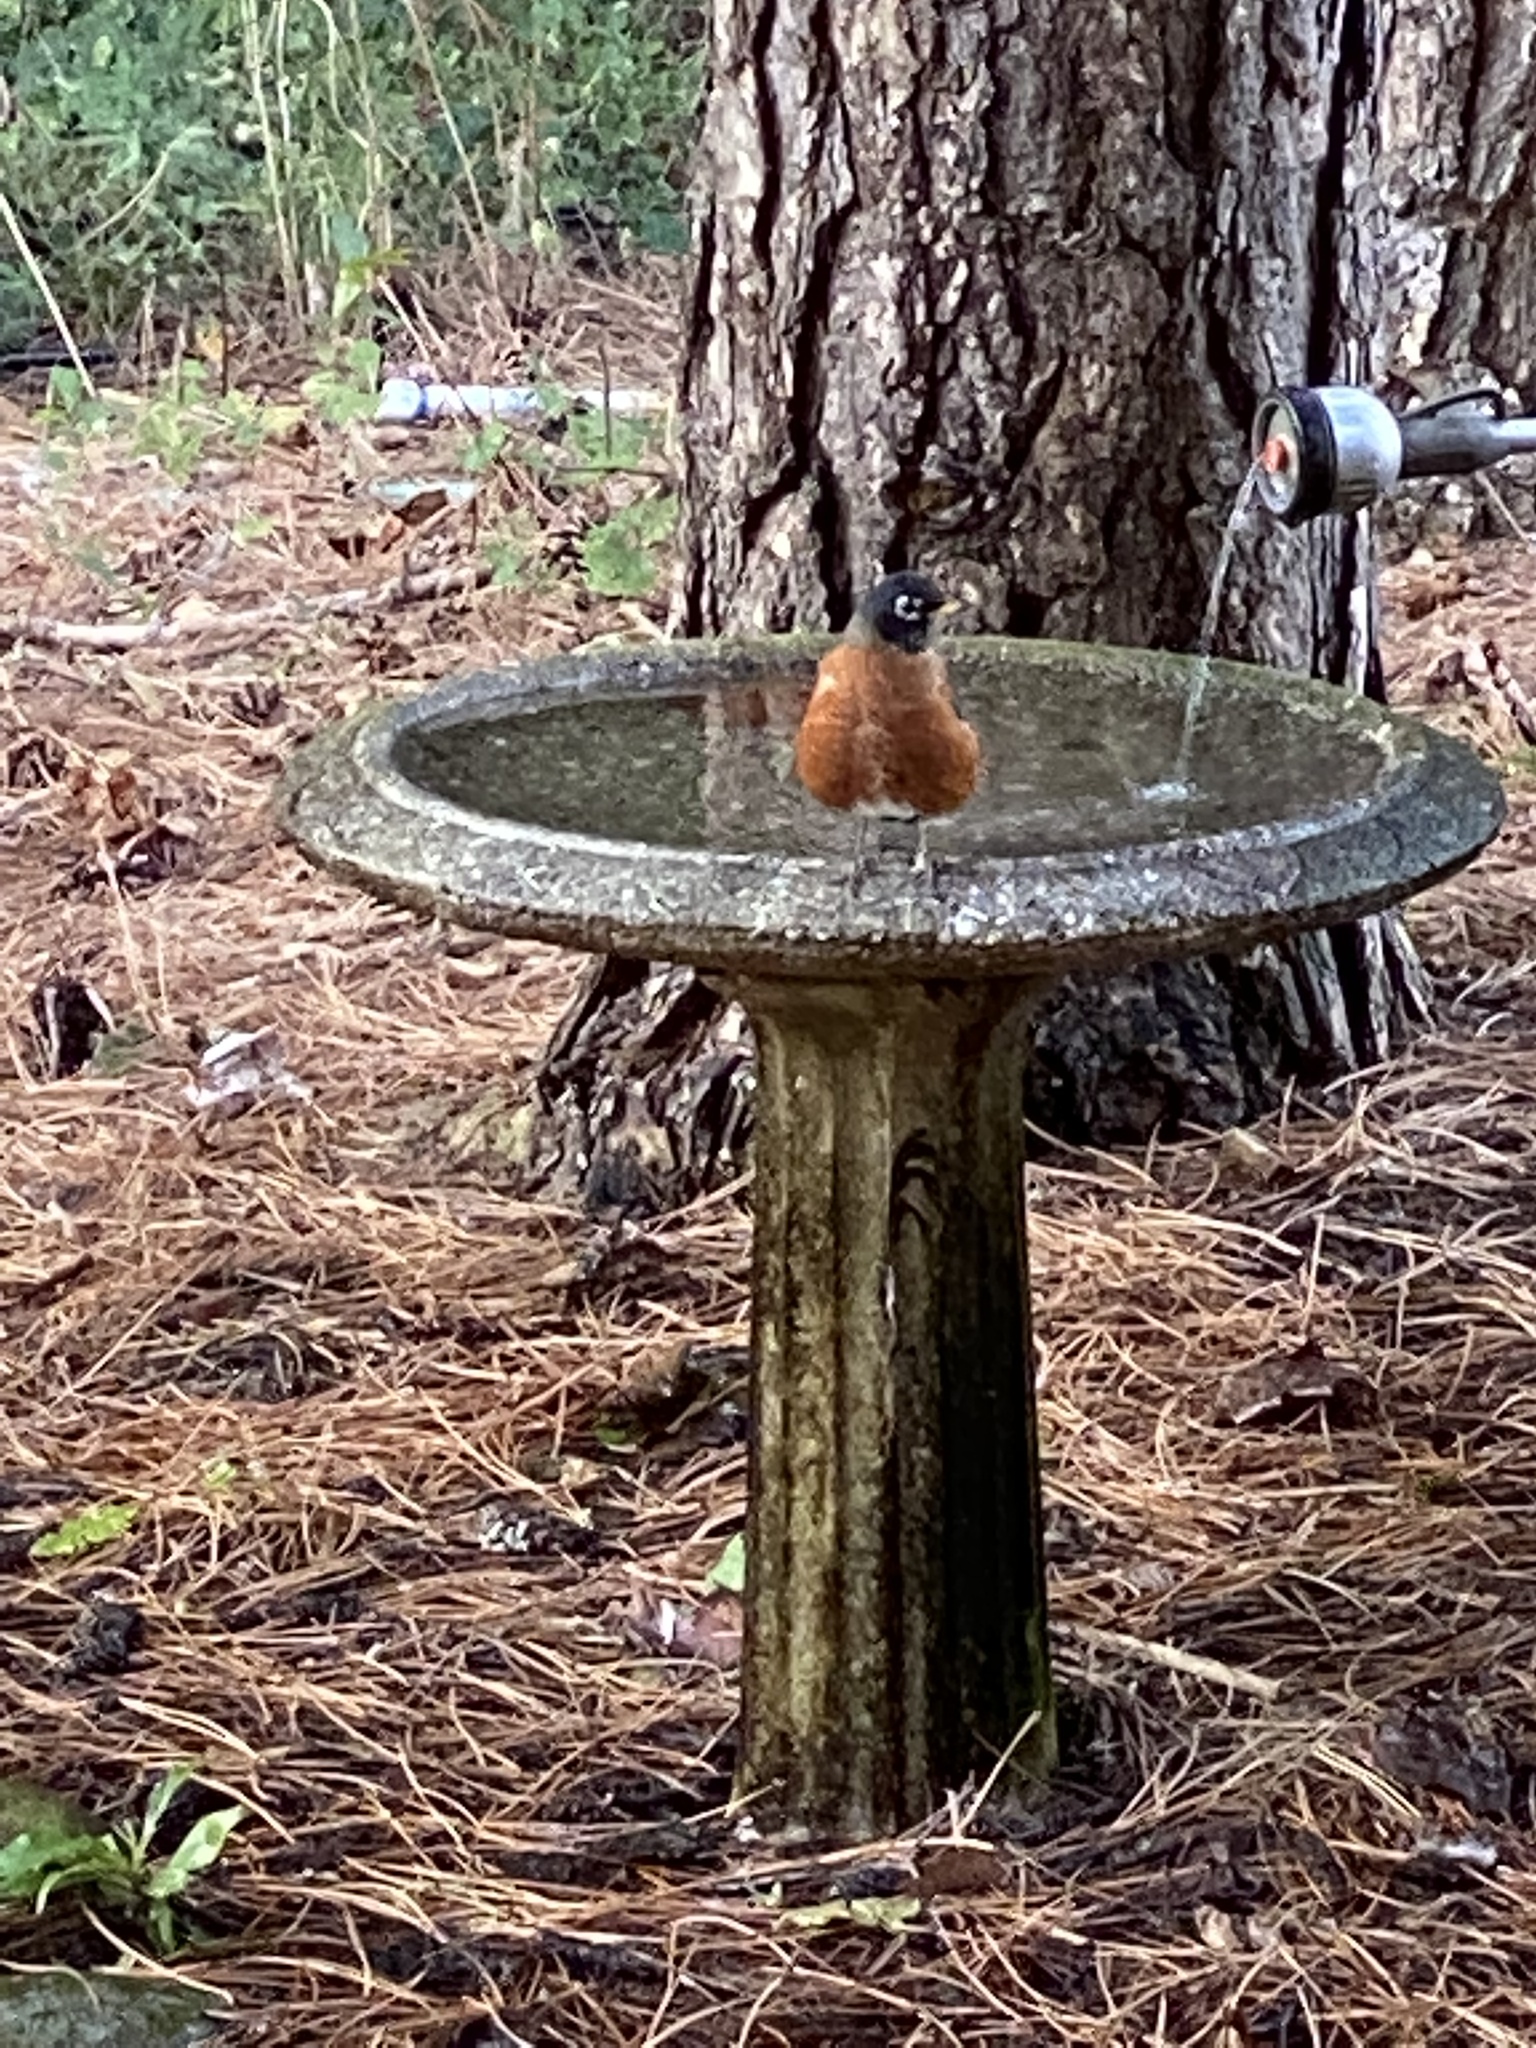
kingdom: Animalia
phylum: Chordata
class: Aves
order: Passeriformes
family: Turdidae
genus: Turdus
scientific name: Turdus migratorius
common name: American robin
